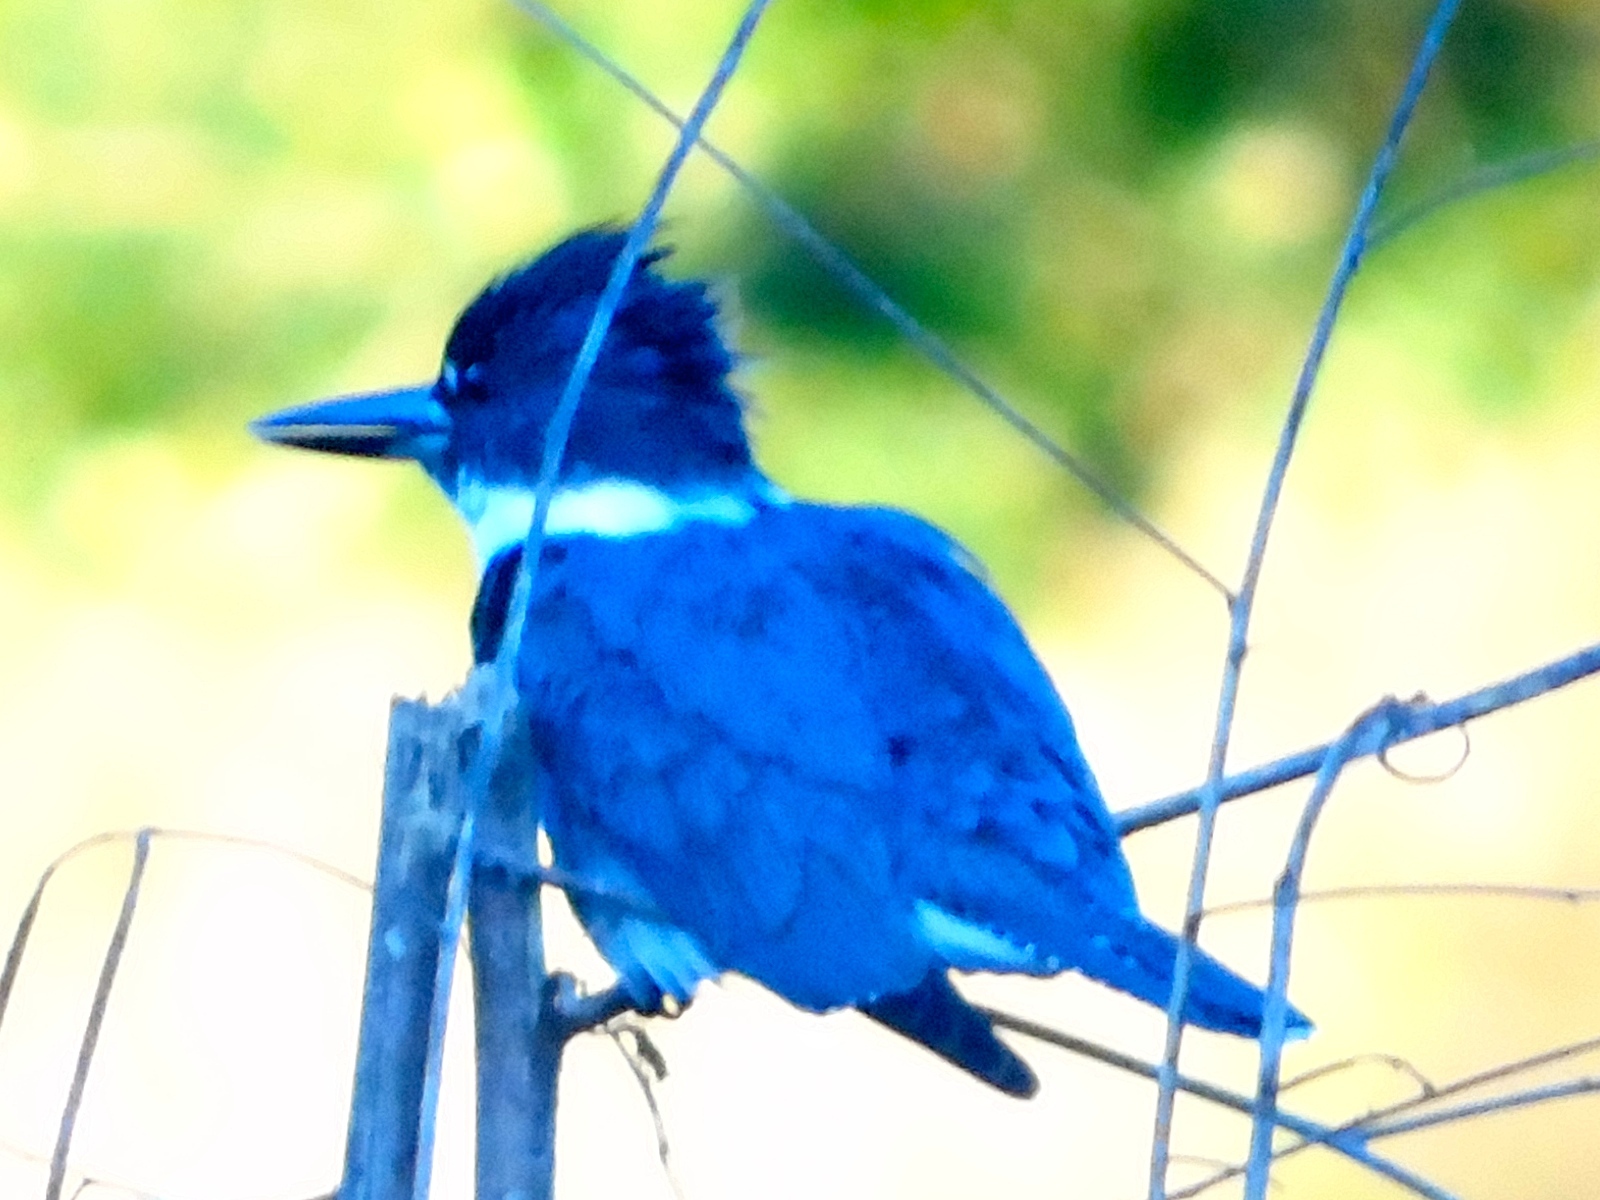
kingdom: Animalia
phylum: Chordata
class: Aves
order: Coraciiformes
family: Alcedinidae
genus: Megaceryle
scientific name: Megaceryle alcyon
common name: Belted kingfisher
